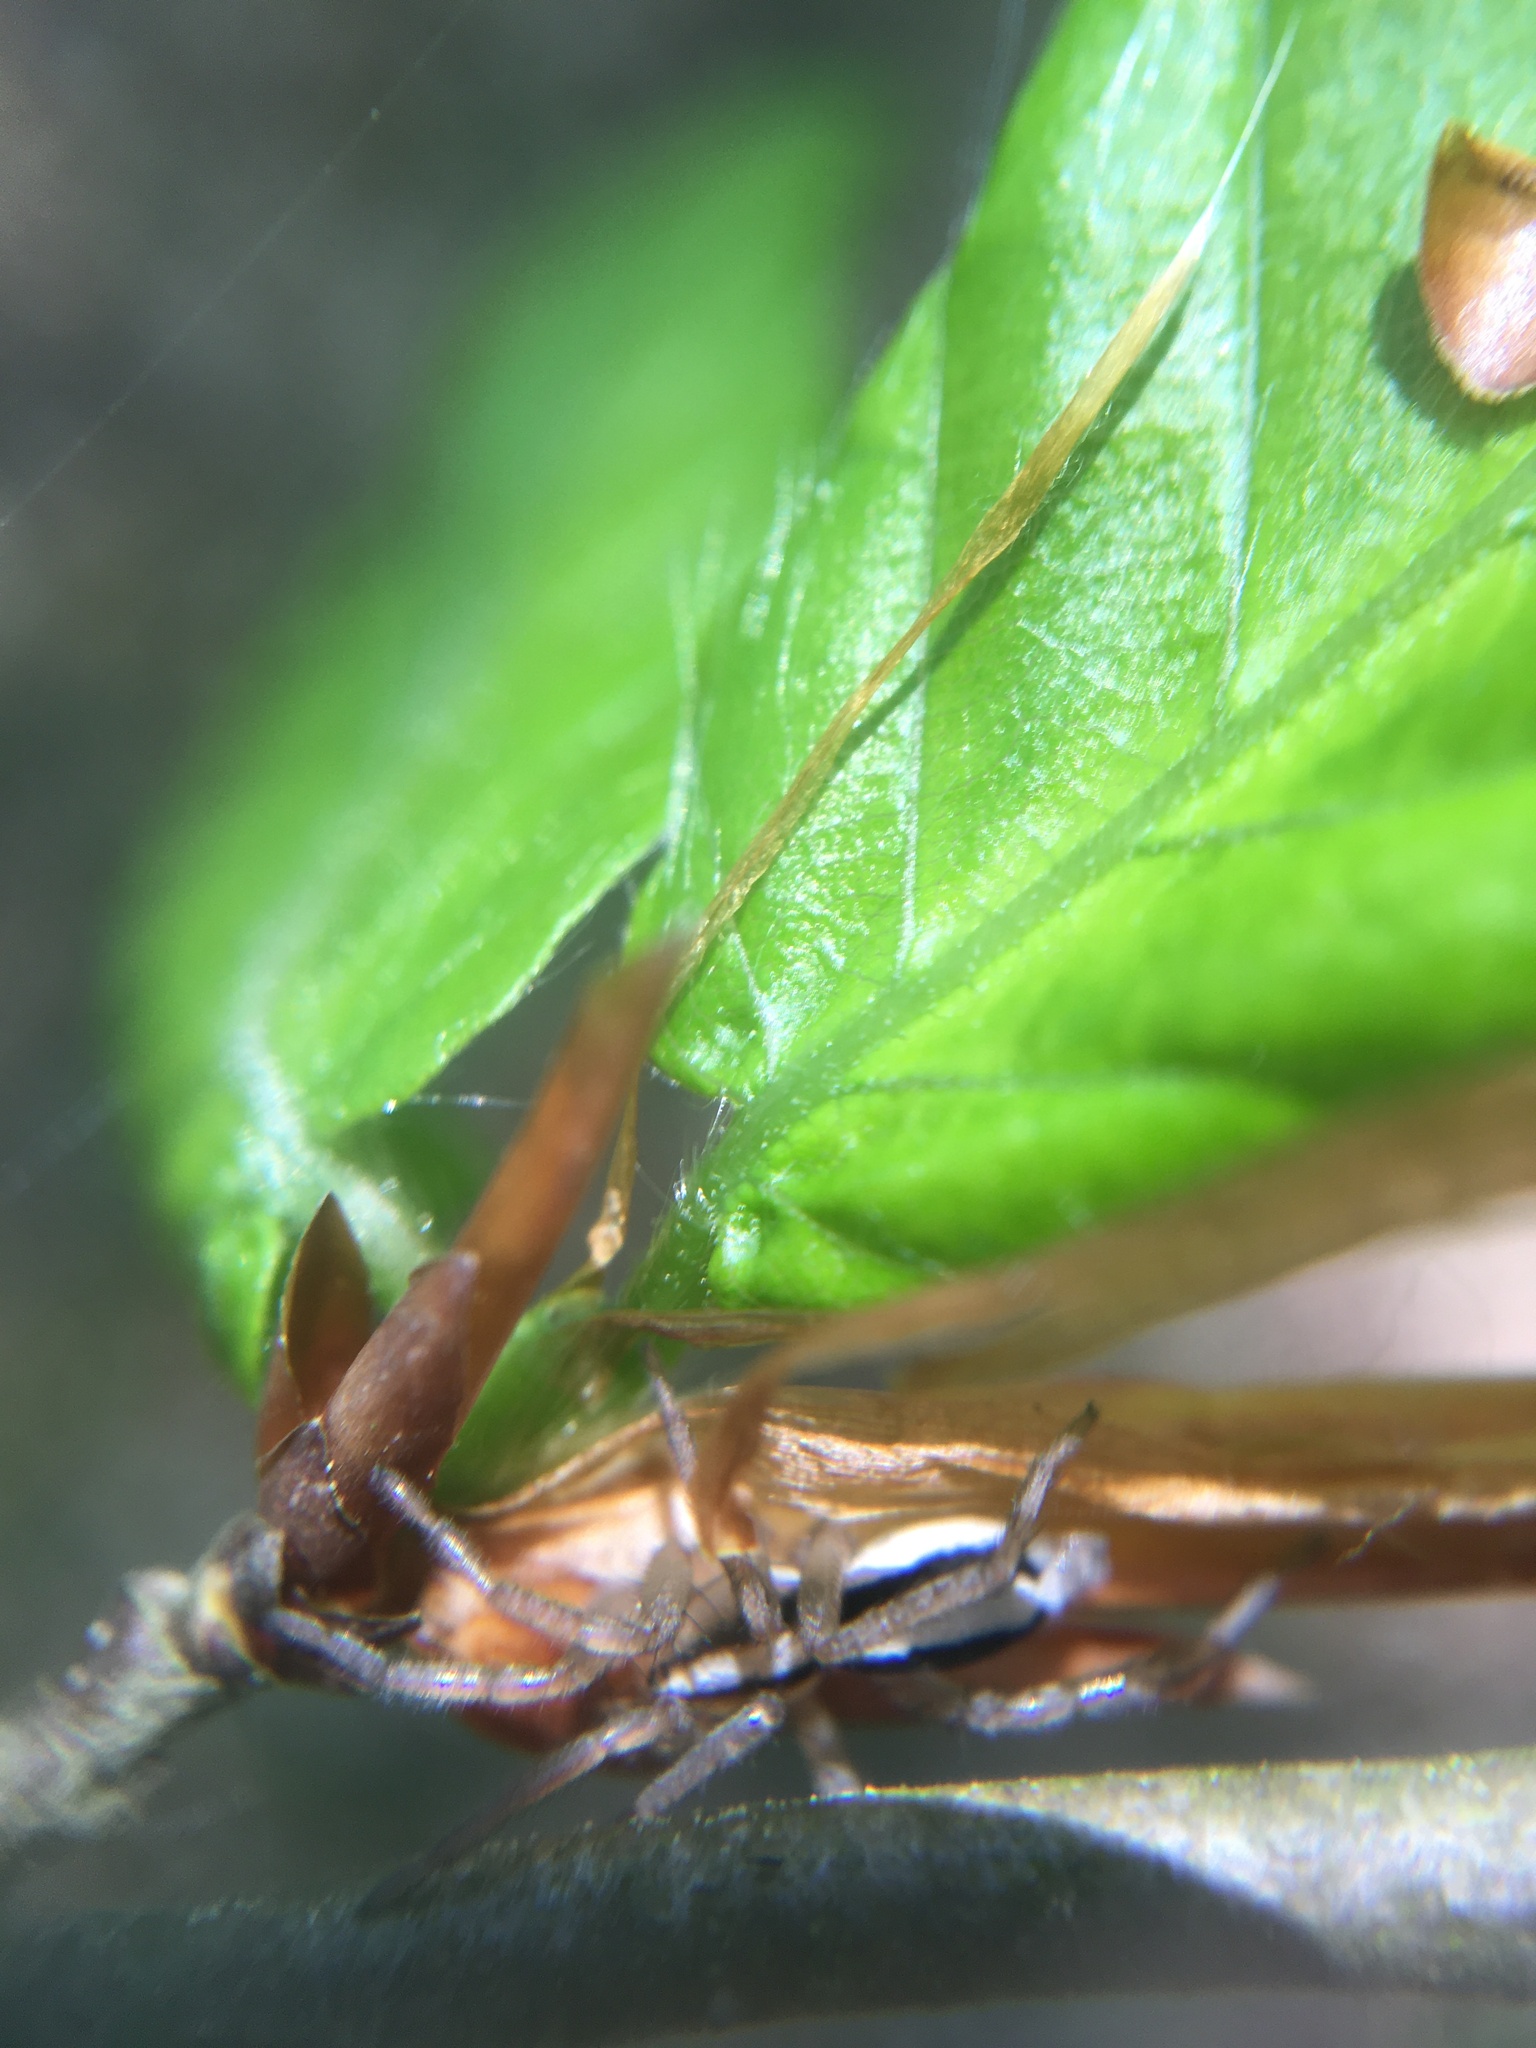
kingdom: Animalia
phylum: Arthropoda
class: Arachnida
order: Araneae
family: Gnaphosidae
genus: Cesonia
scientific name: Cesonia bilineata
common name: Two-lined stealthy ground spider
